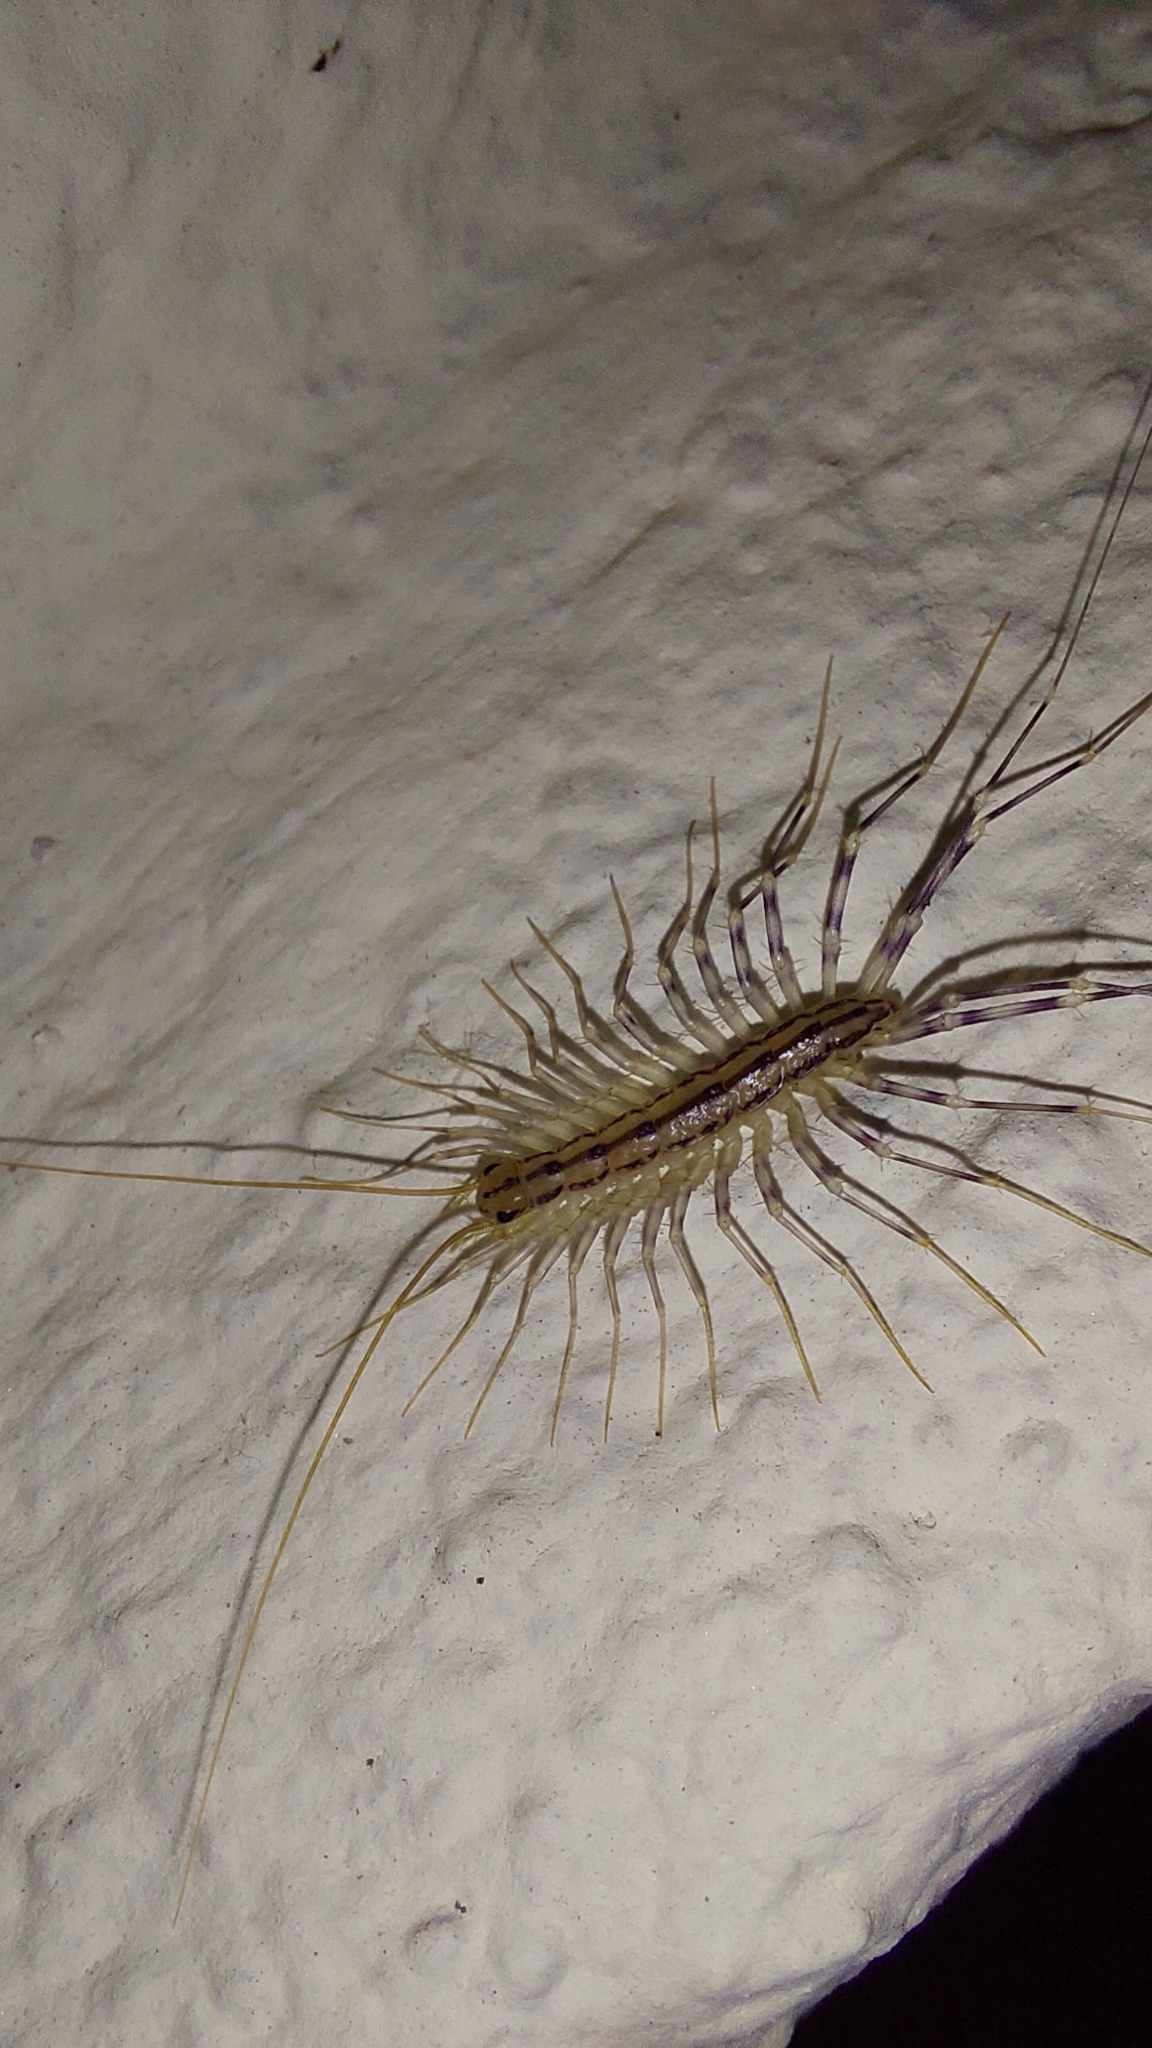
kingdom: Animalia
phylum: Arthropoda
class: Chilopoda
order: Scutigeromorpha
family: Scutigeridae
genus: Scutigera
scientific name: Scutigera coleoptrata
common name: House centipede
